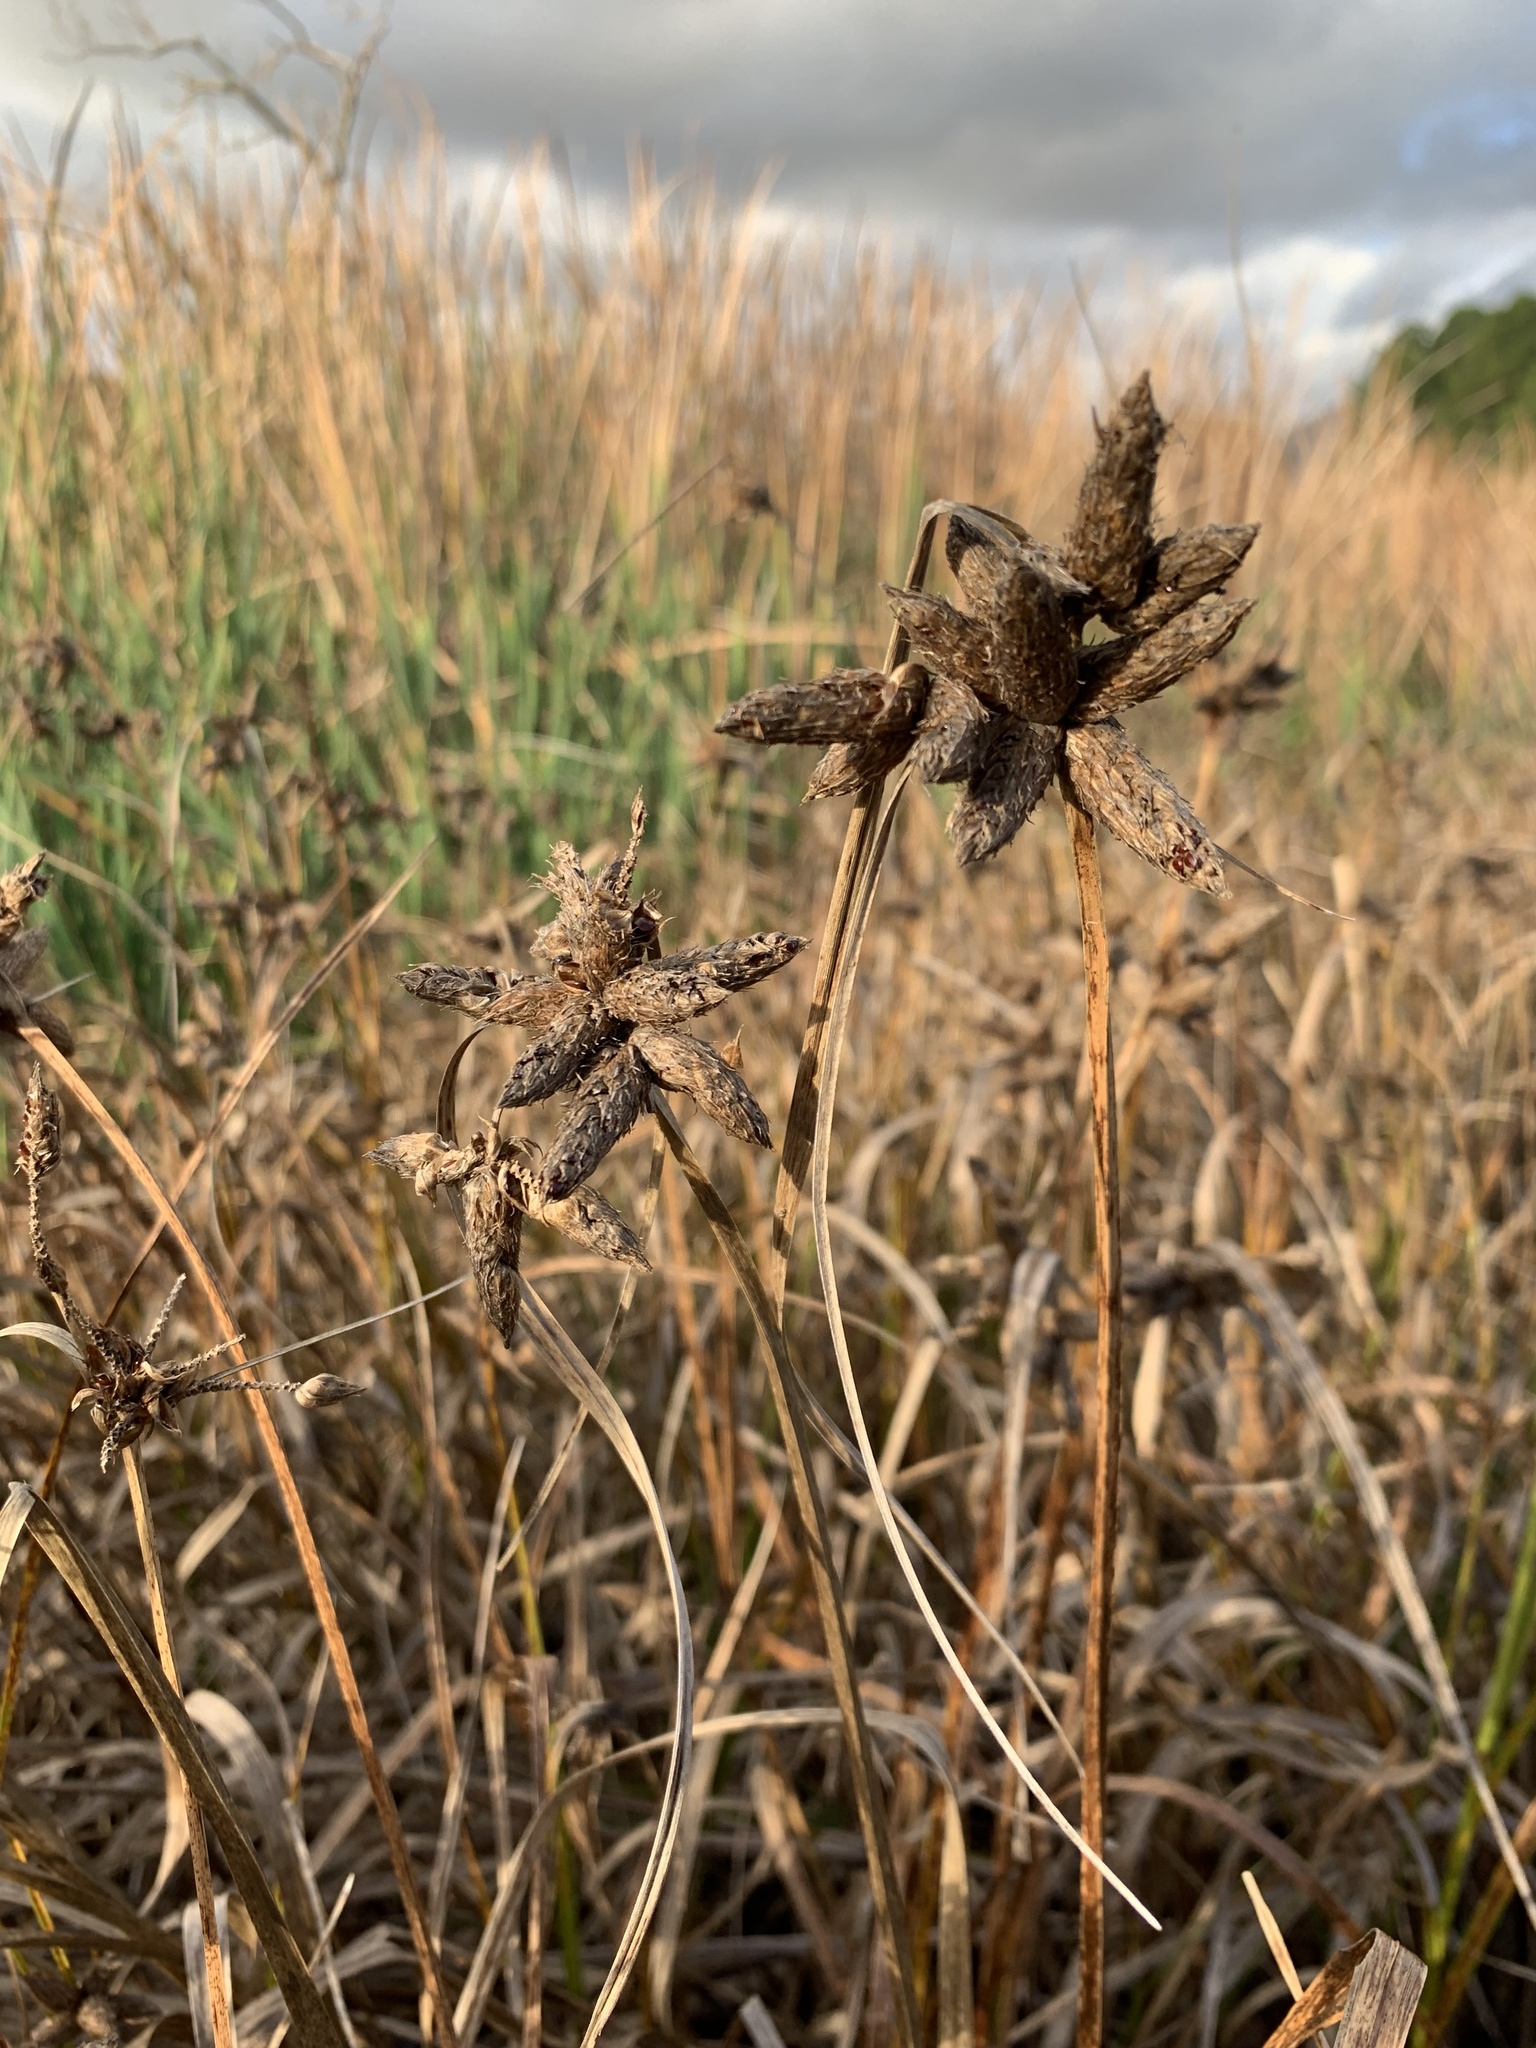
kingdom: Plantae
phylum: Tracheophyta
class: Liliopsida
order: Poales
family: Cyperaceae
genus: Bolboschoenus
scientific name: Bolboschoenus maritimus
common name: Sea club-rush
